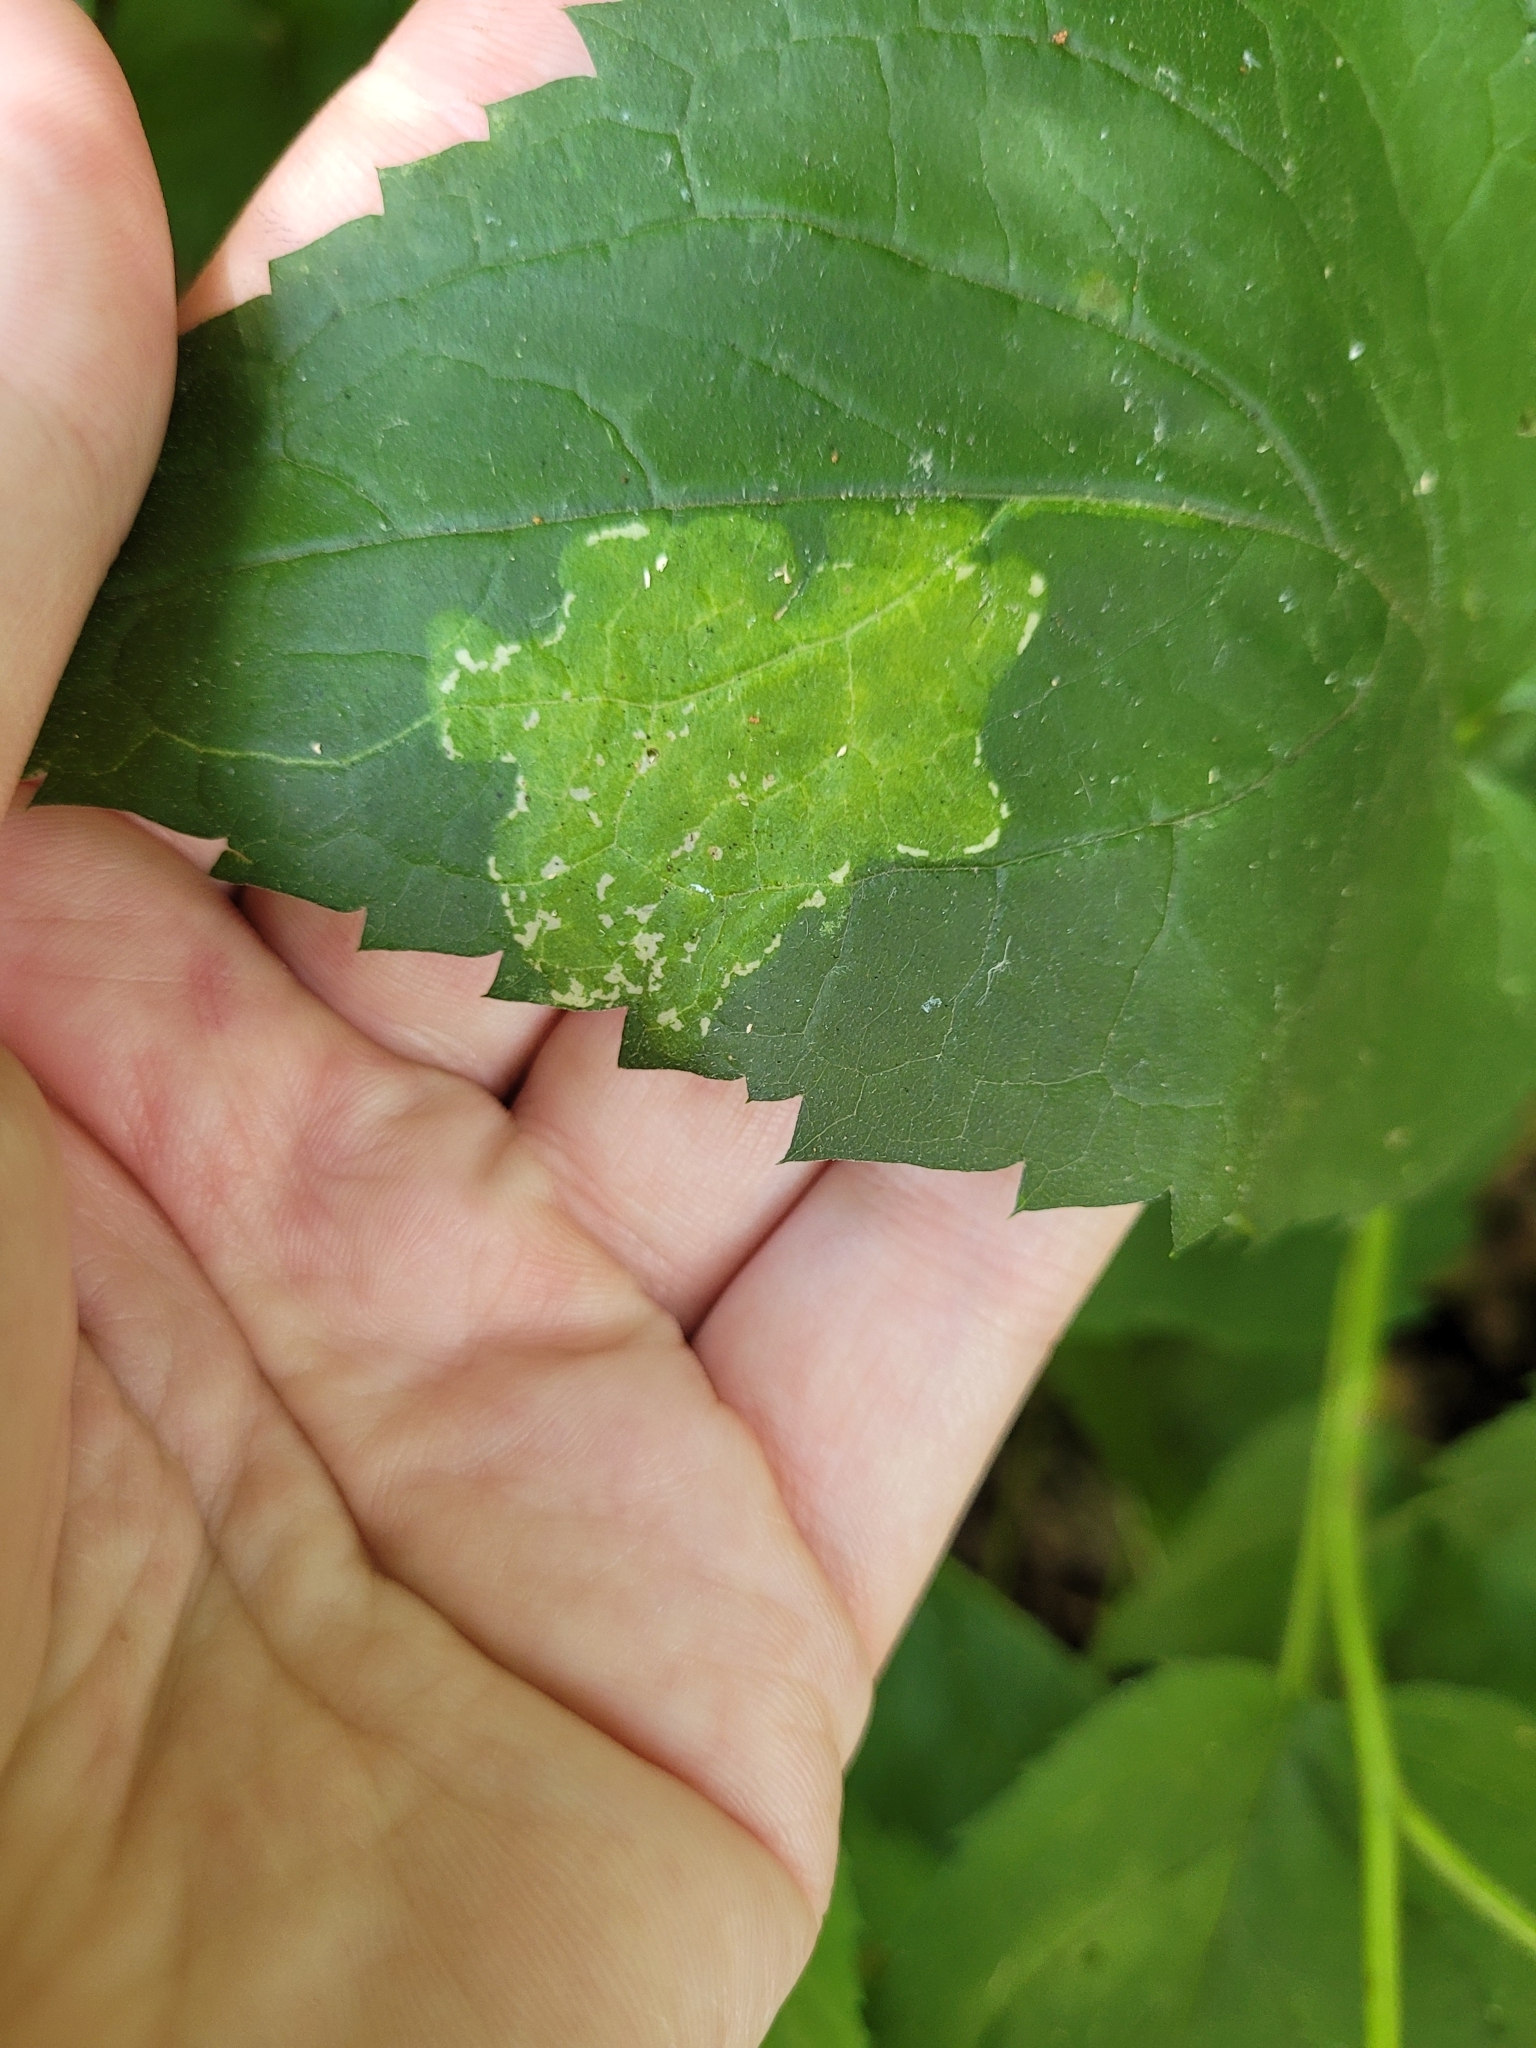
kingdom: Animalia
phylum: Arthropoda
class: Insecta
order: Lepidoptera
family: Gracillariidae
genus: Acrocercops
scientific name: Acrocercops astericola
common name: Aster tentiform blotchminer
